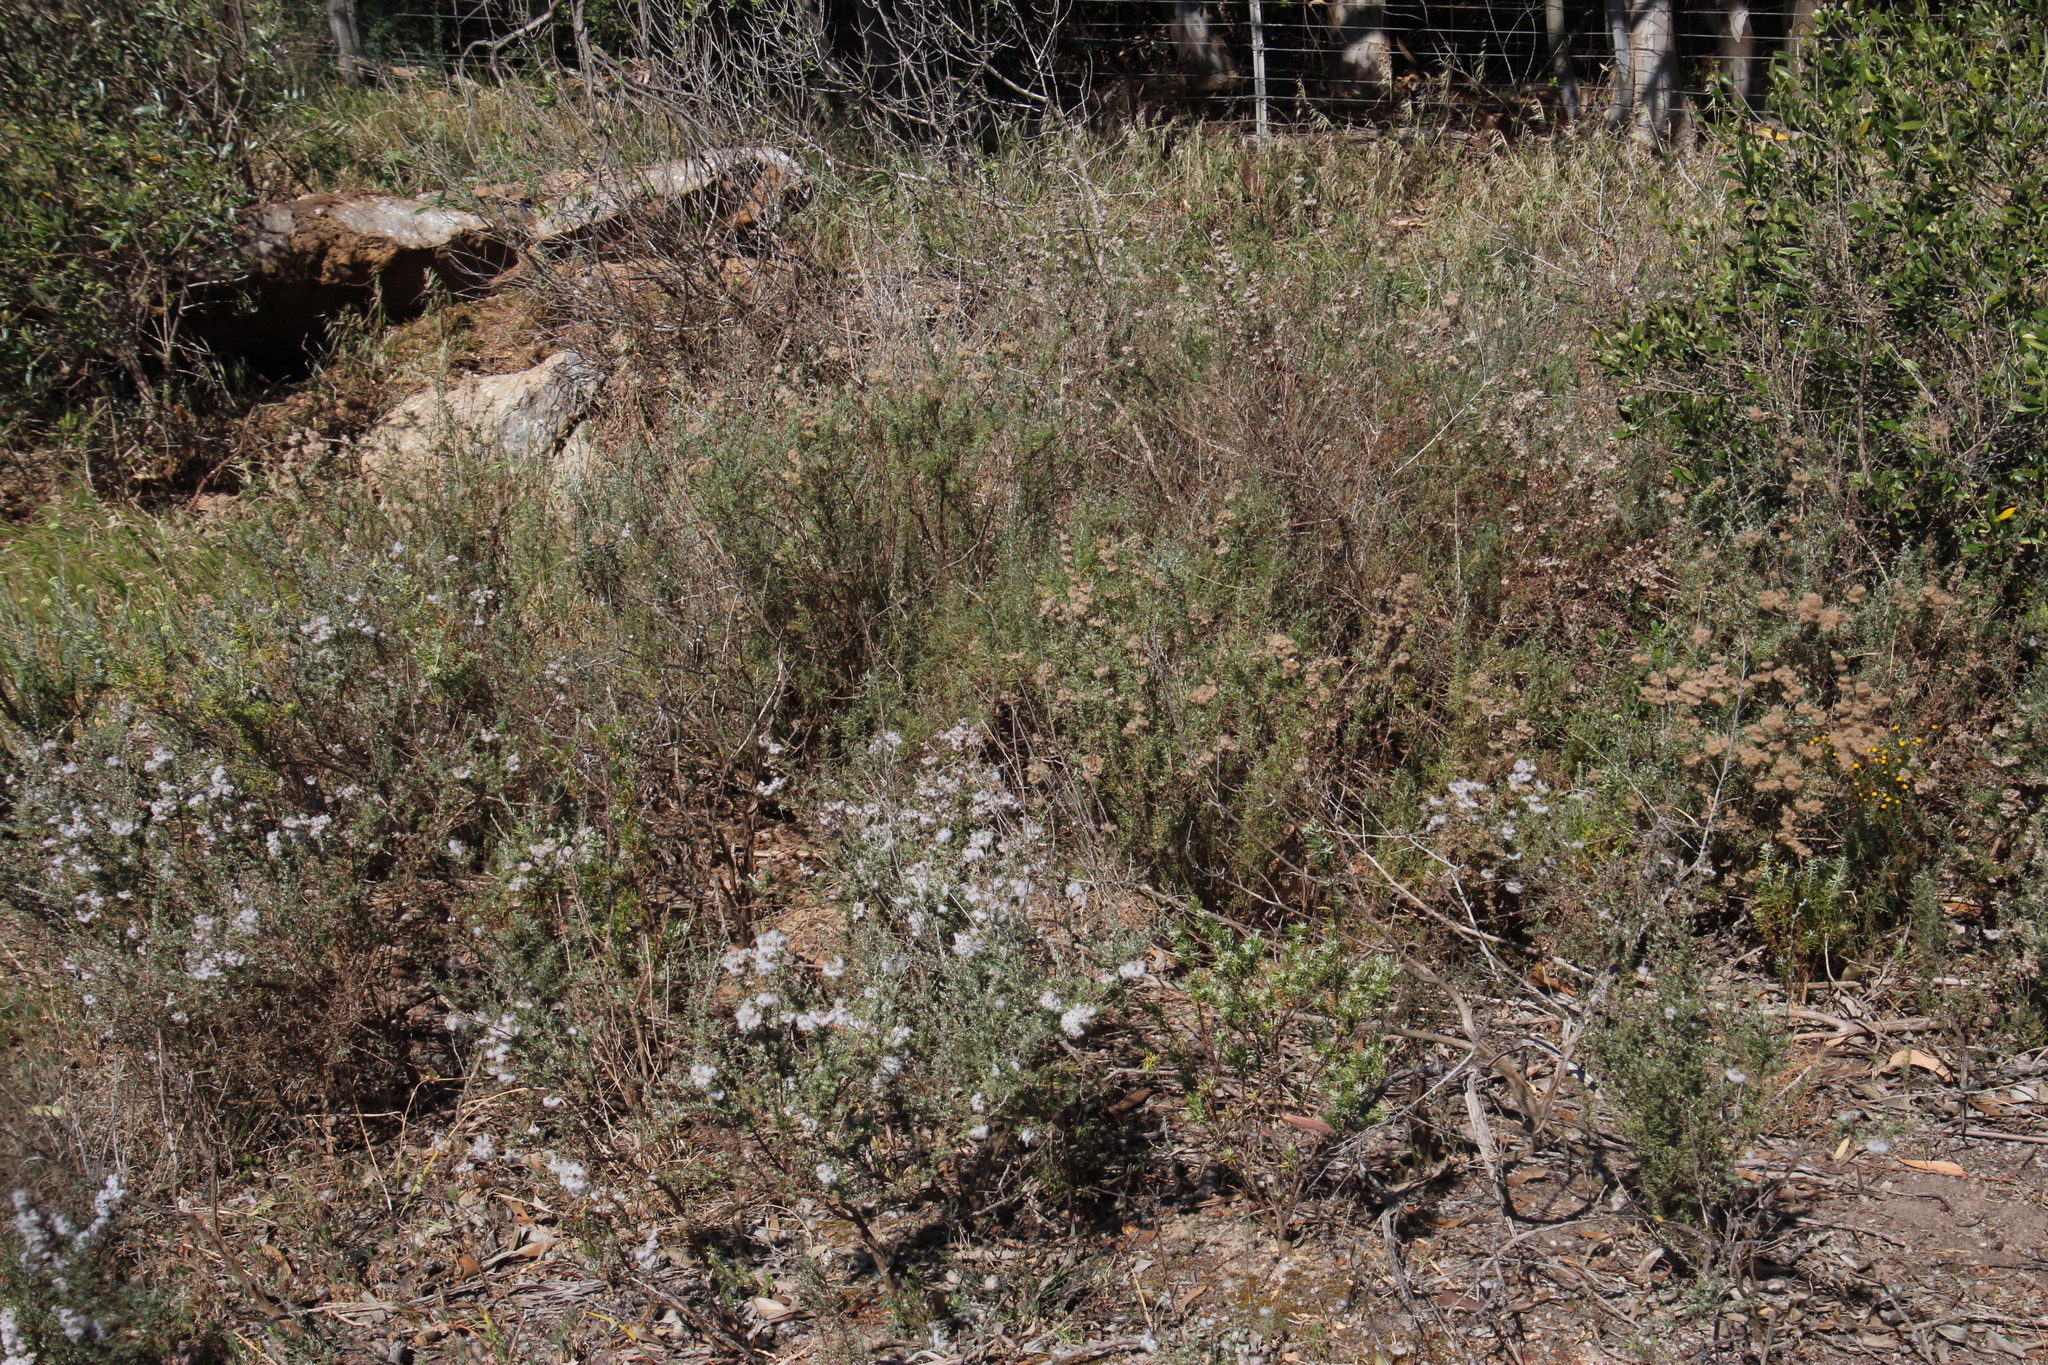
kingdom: Plantae
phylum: Tracheophyta
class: Magnoliopsida
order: Asterales
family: Asteraceae
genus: Eriocephalus
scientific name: Eriocephalus africanus
